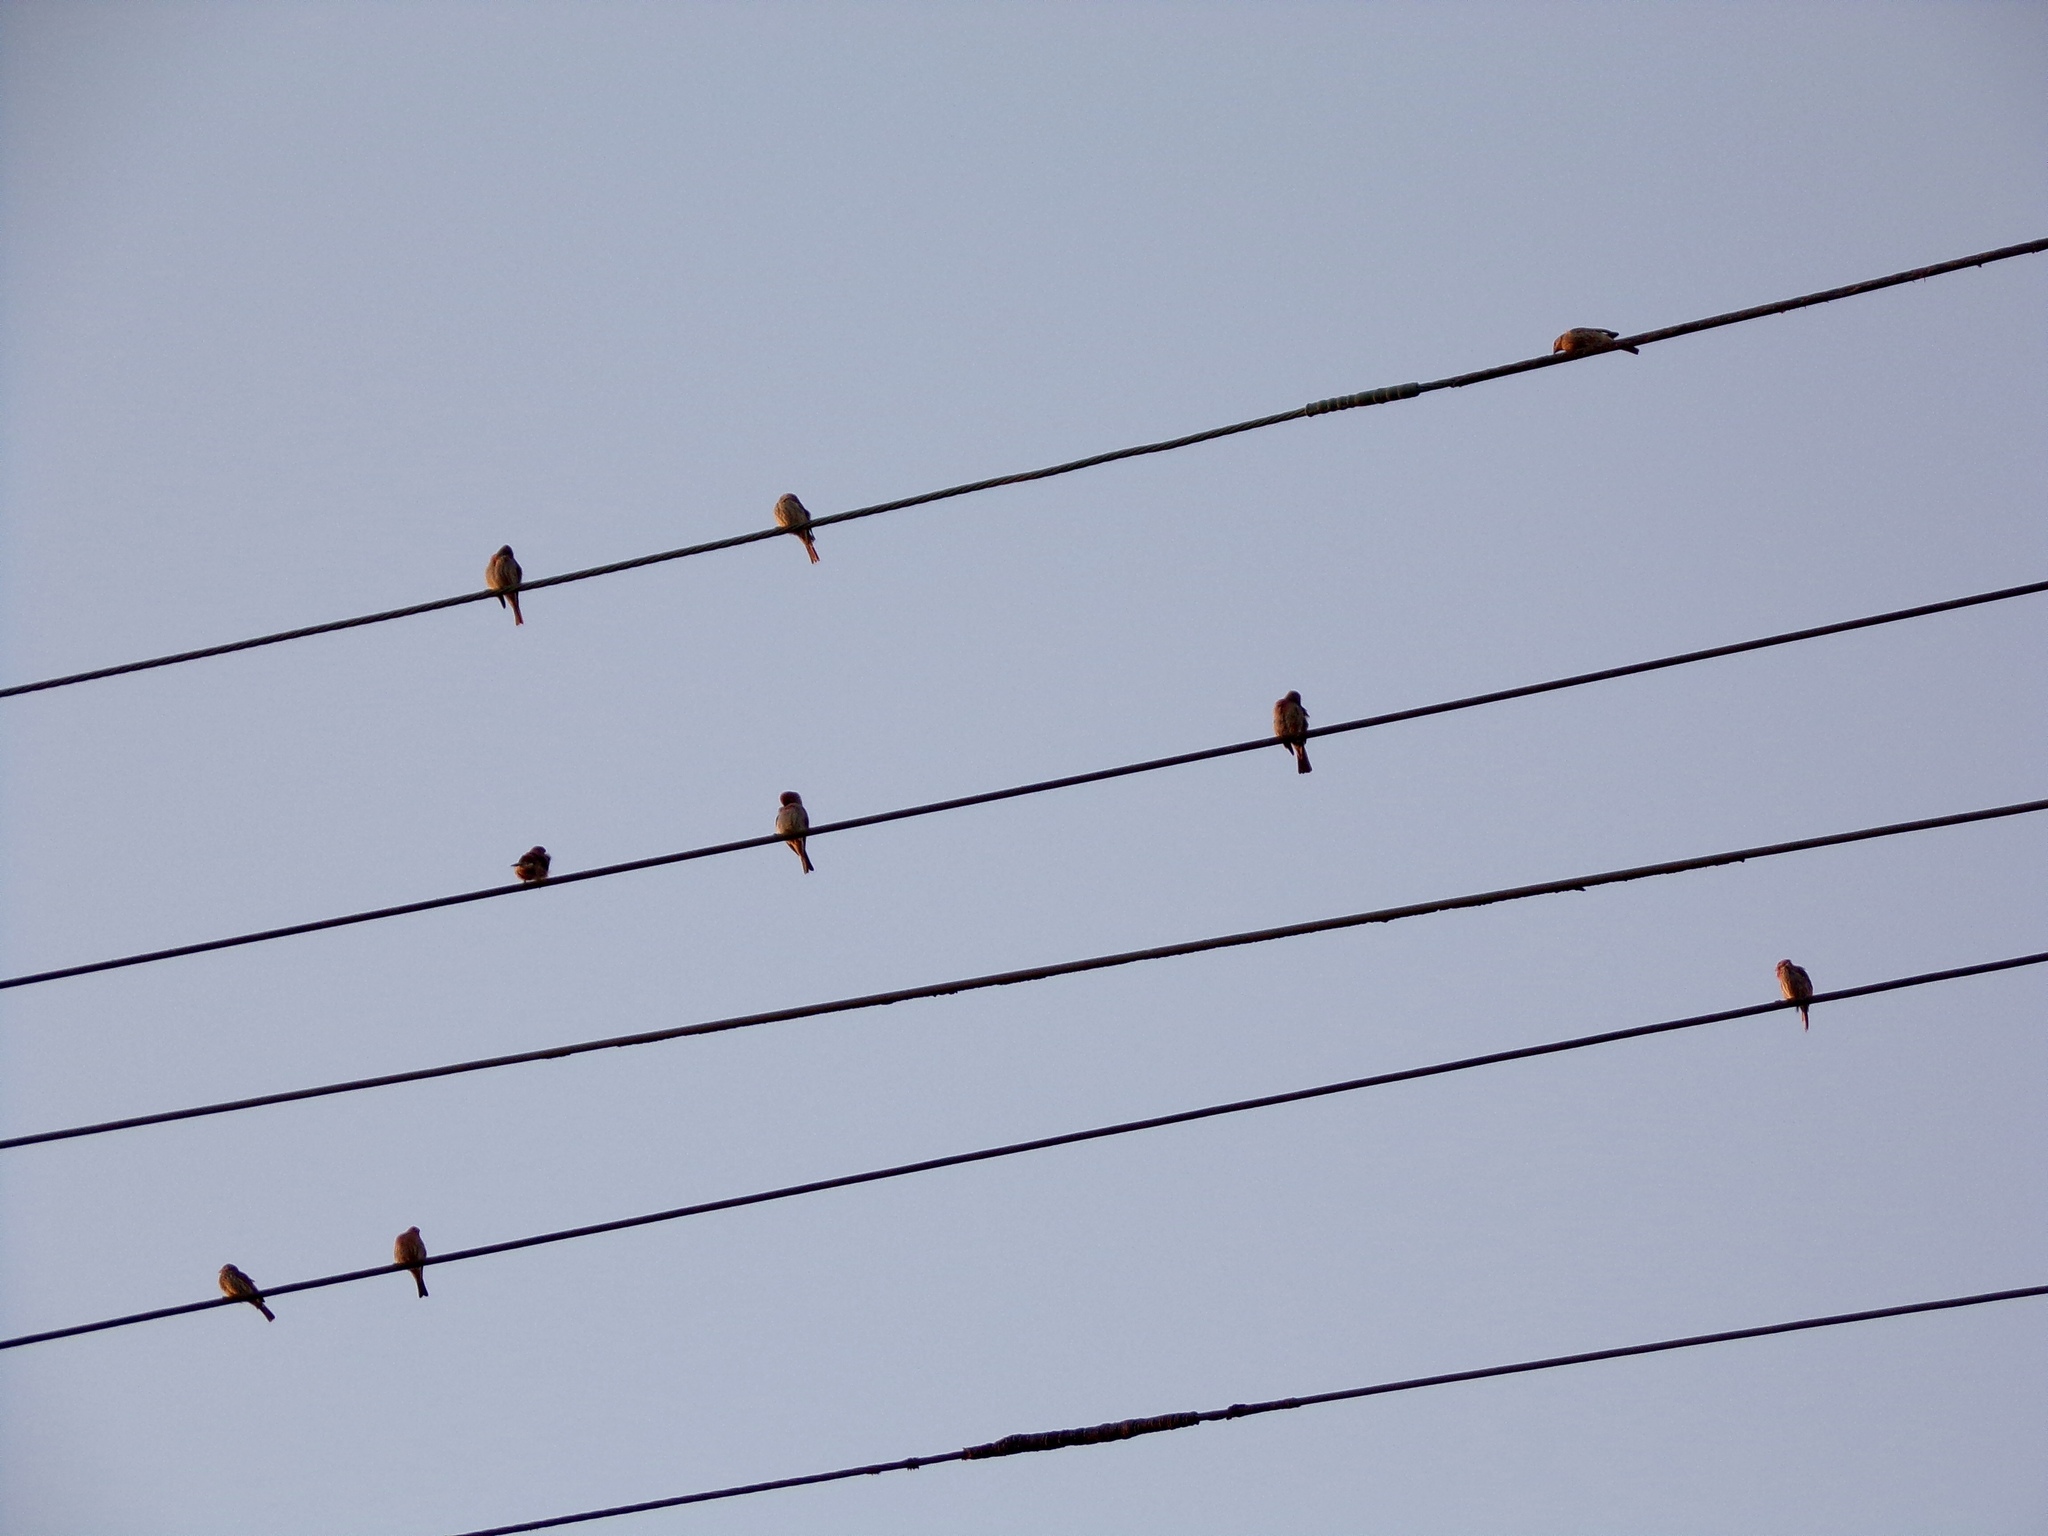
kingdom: Animalia
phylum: Chordata
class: Aves
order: Passeriformes
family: Fringillidae
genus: Haemorhous
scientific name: Haemorhous mexicanus
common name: House finch
